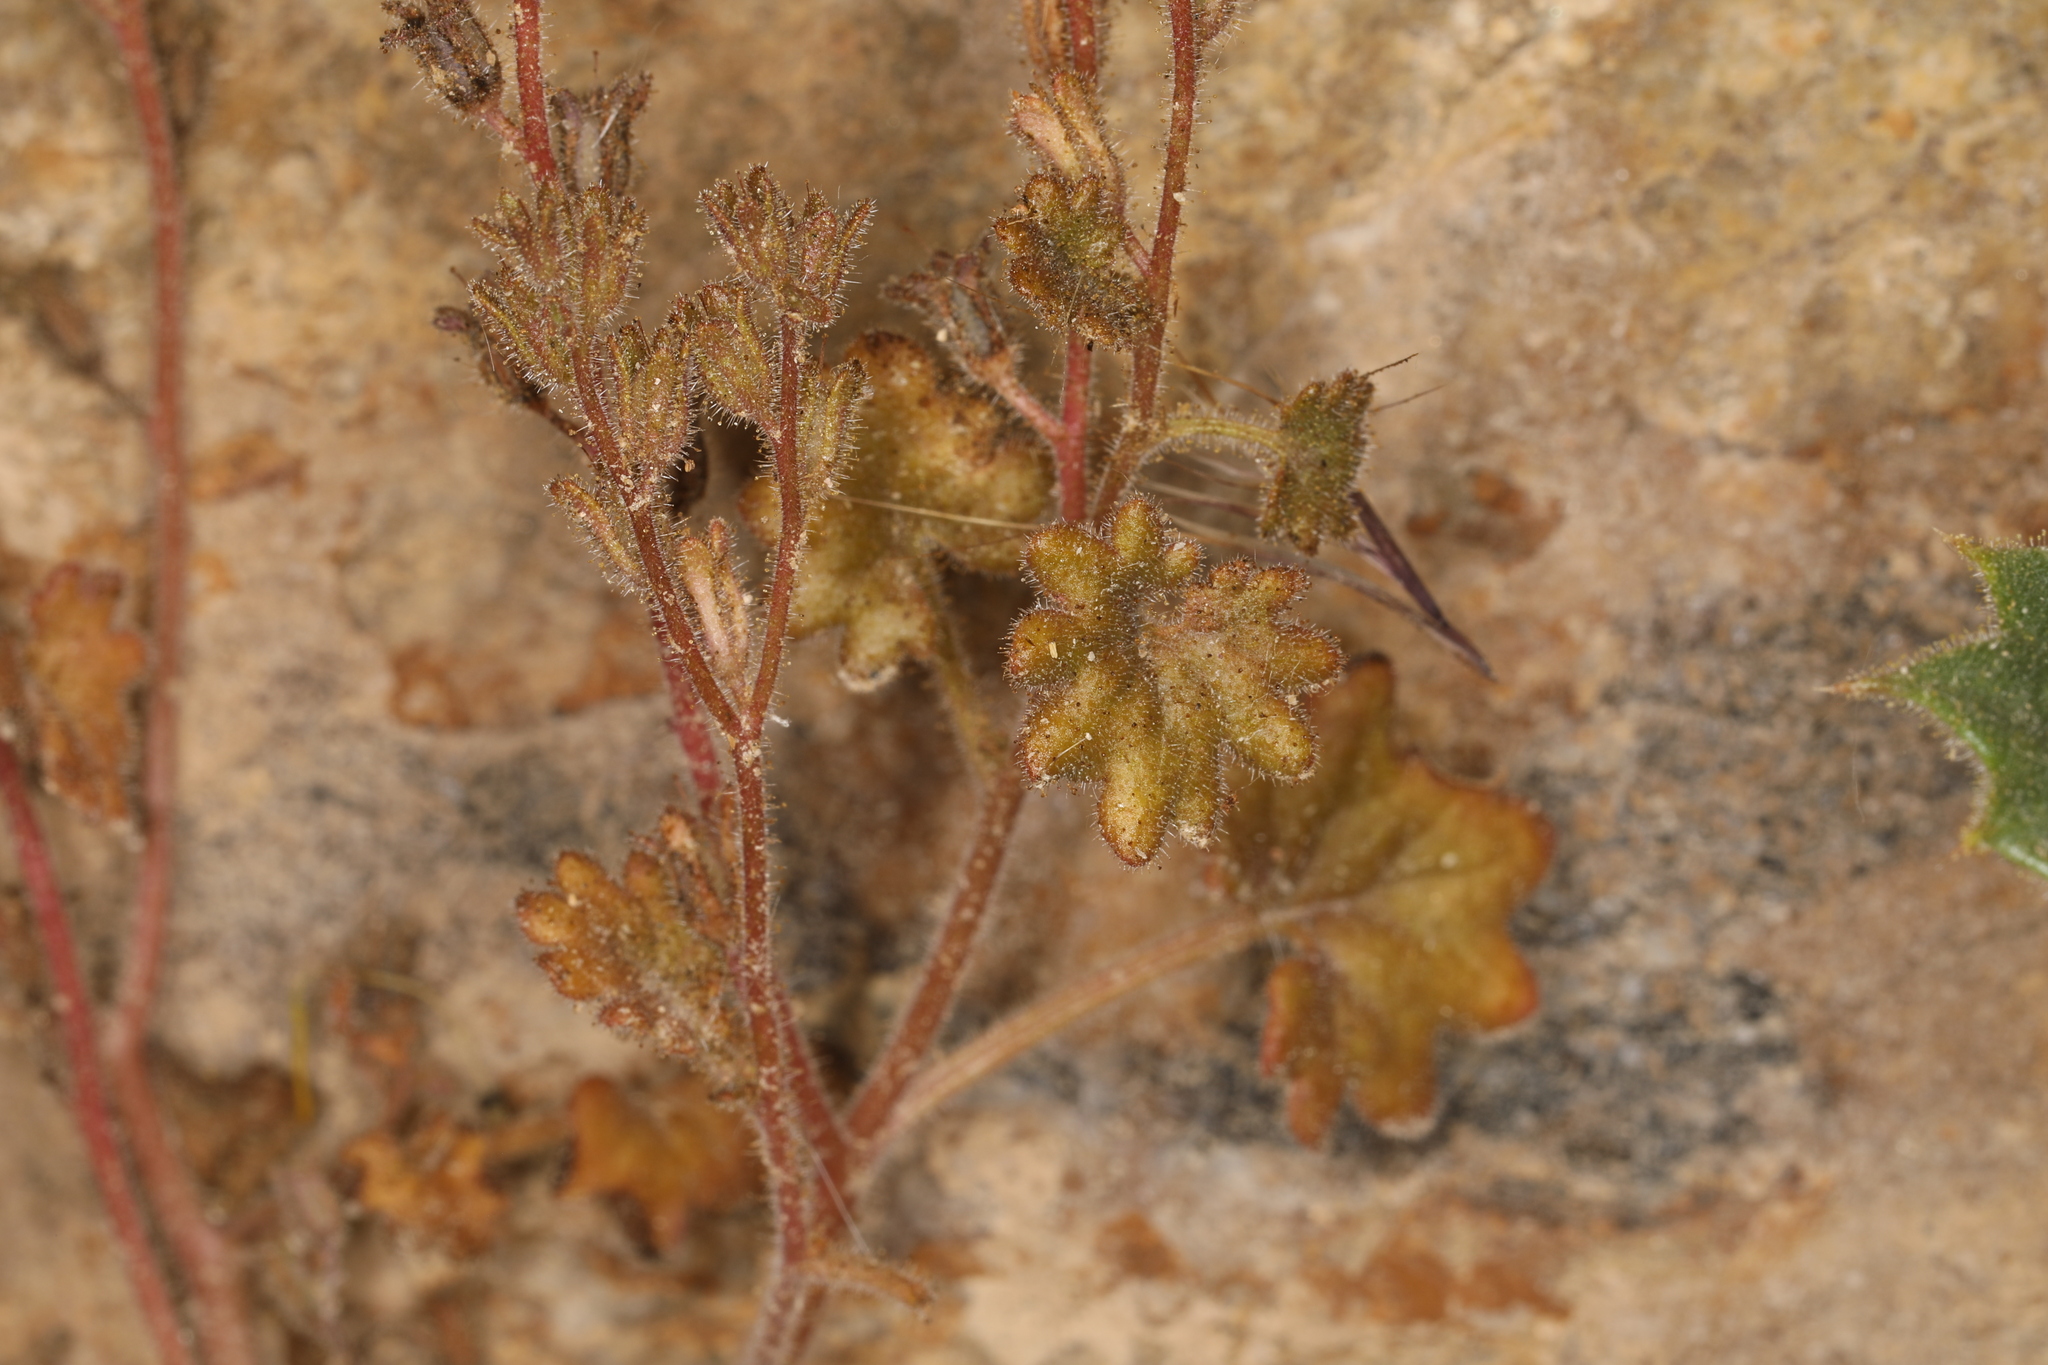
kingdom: Plantae
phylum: Tracheophyta
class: Magnoliopsida
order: Boraginales
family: Hydrophyllaceae
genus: Phacelia
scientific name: Phacelia rotundifolia
